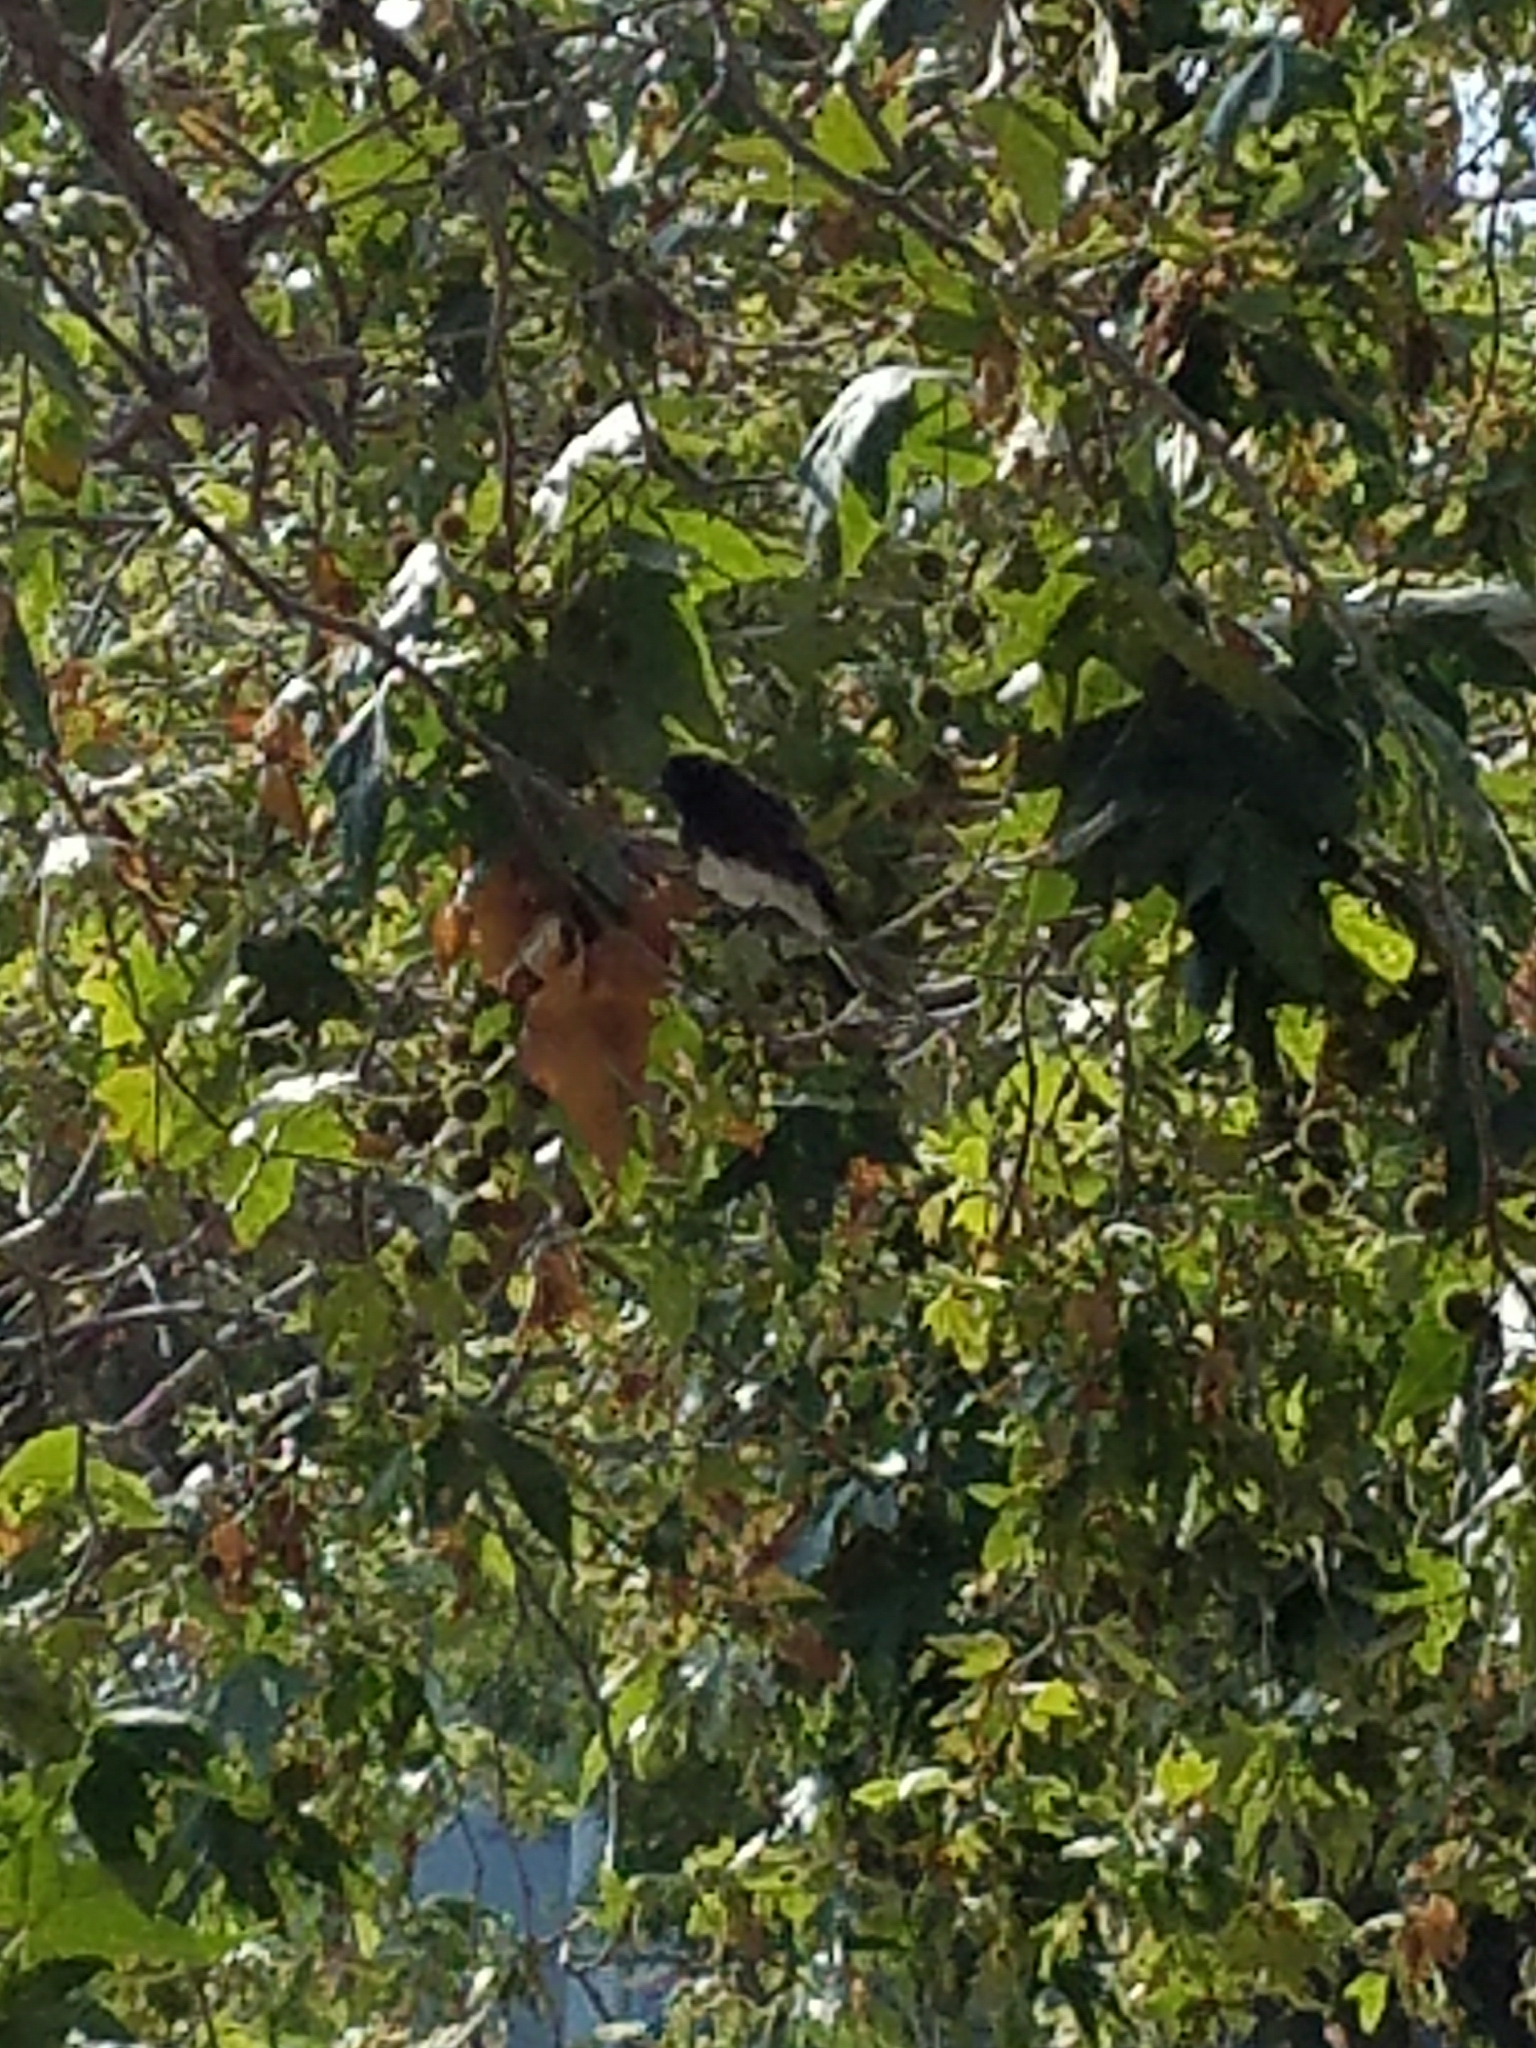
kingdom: Animalia
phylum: Chordata
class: Aves
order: Passeriformes
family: Tyrannidae
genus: Sayornis
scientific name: Sayornis nigricans
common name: Black phoebe
